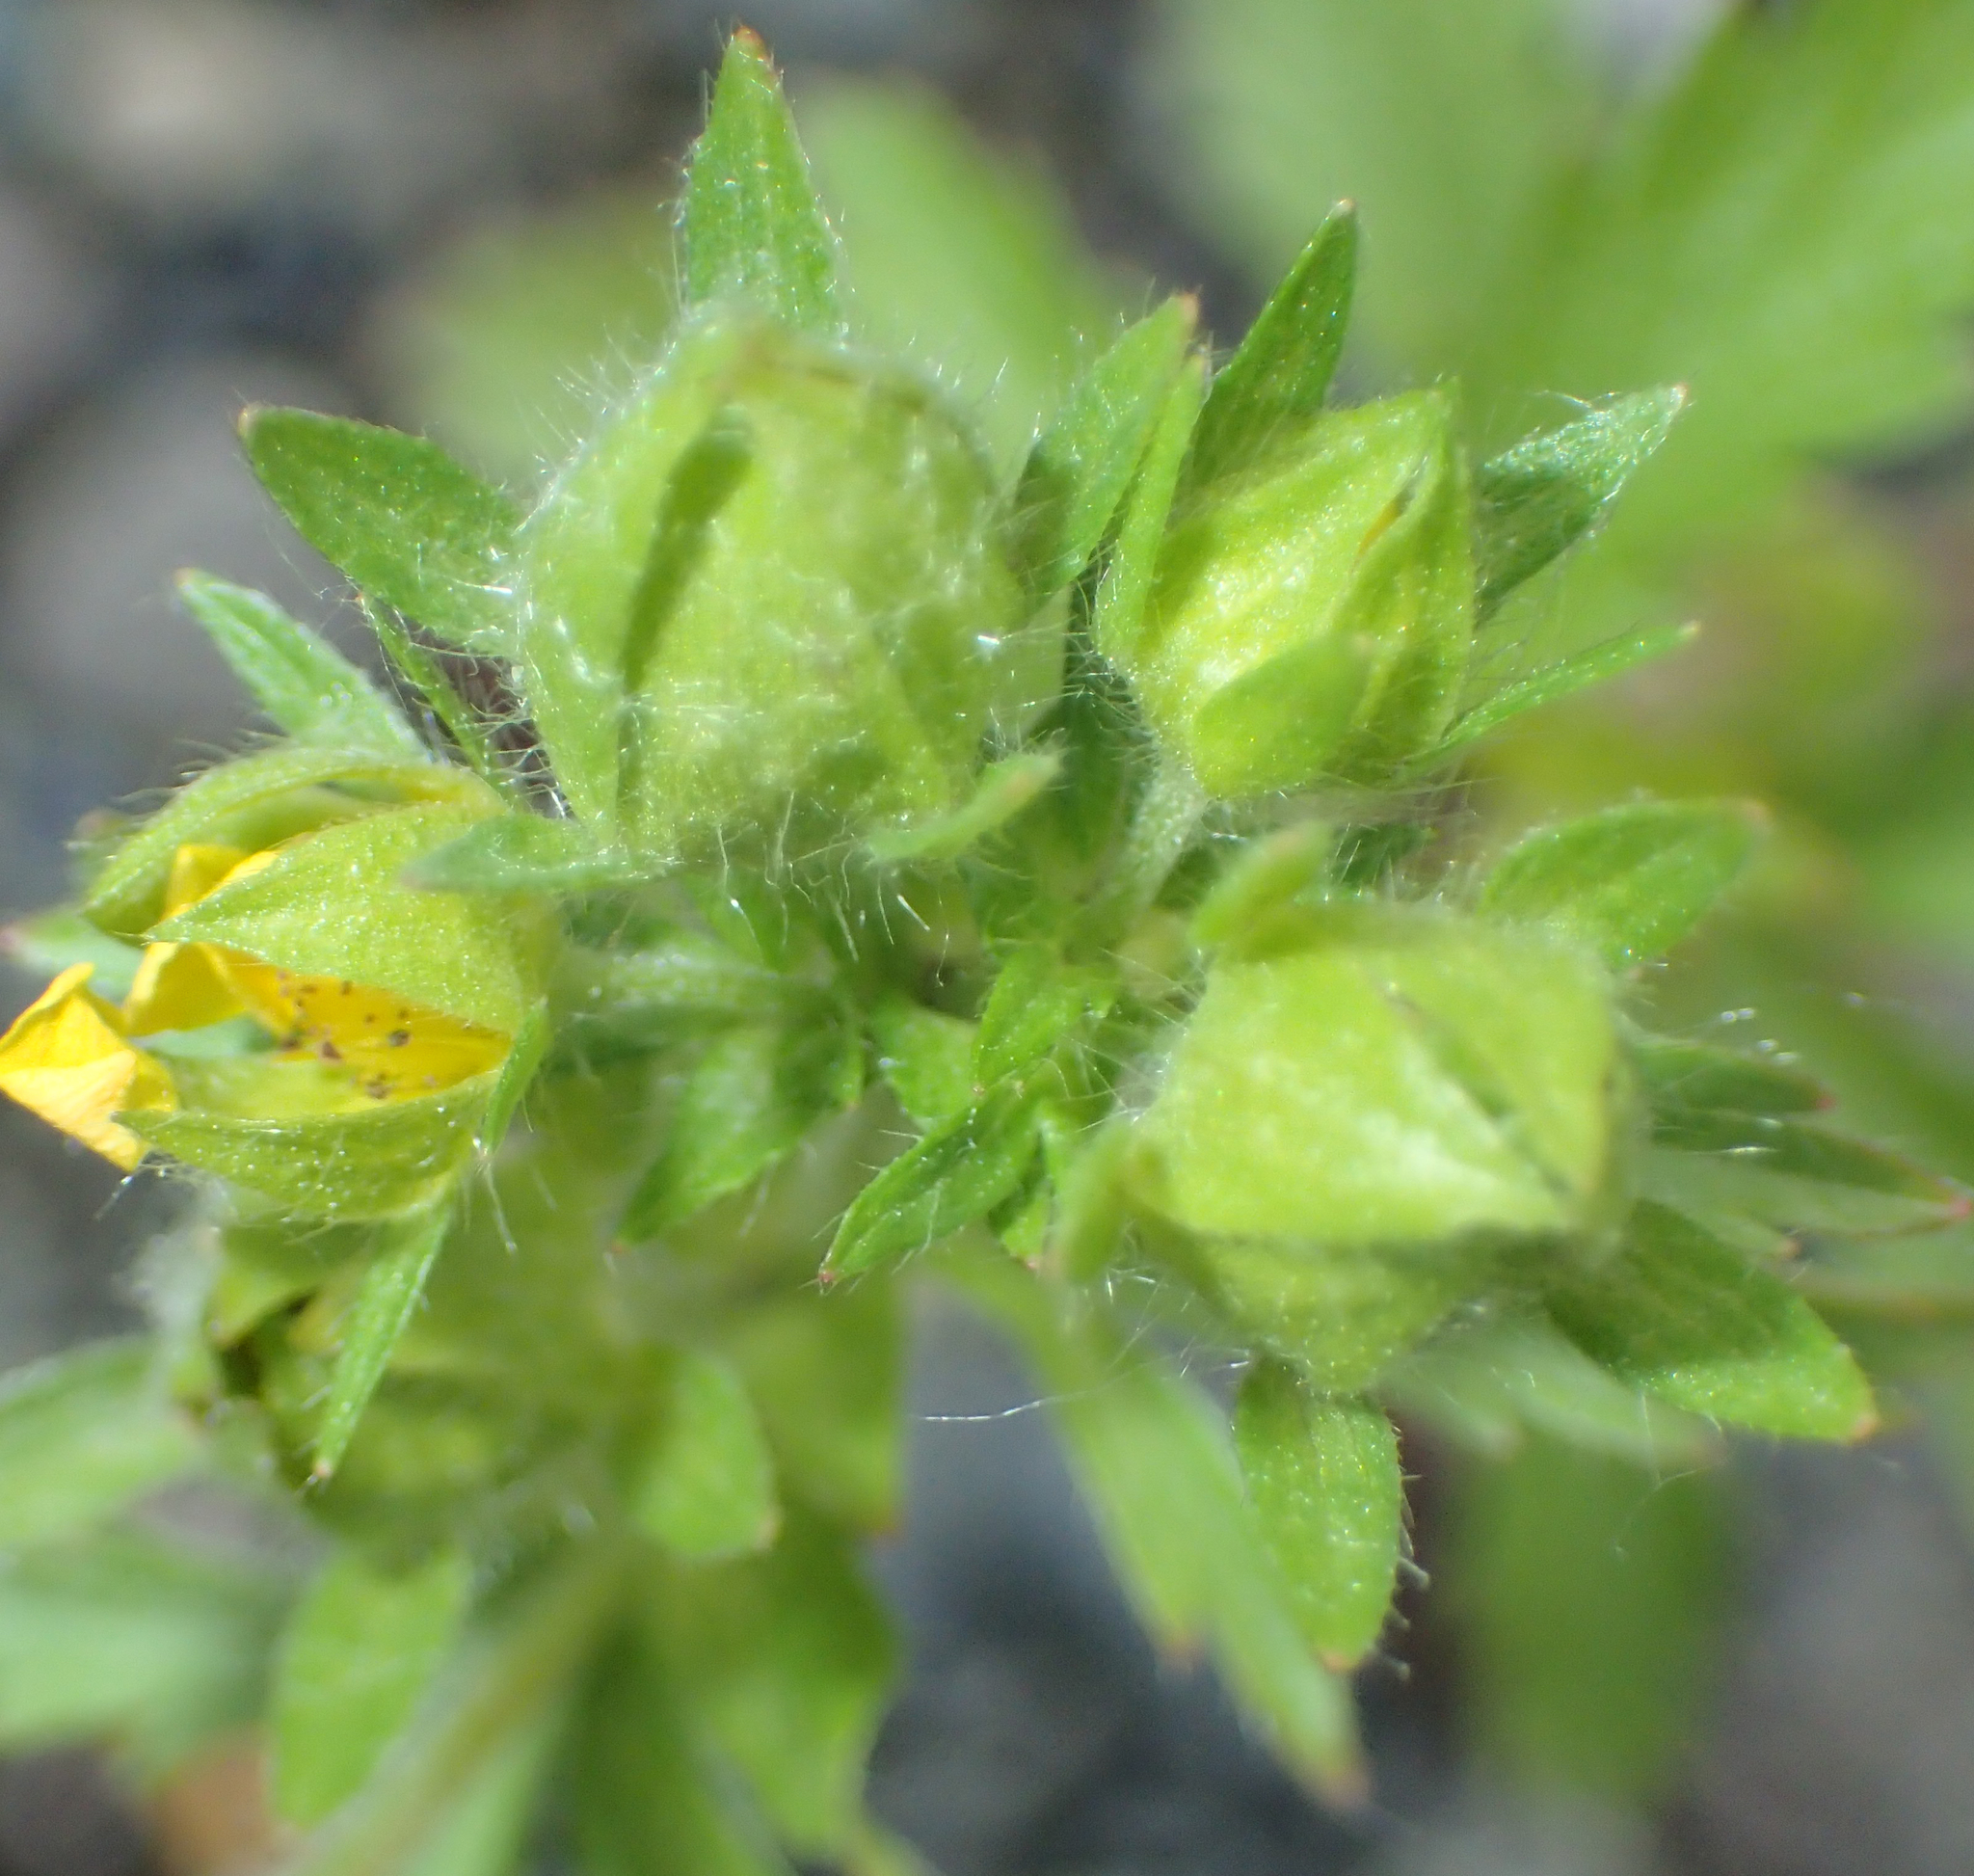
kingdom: Plantae
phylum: Tracheophyta
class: Magnoliopsida
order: Rosales
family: Rosaceae
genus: Potentilla
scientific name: Potentilla norvegica
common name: Ternate-leaved cinquefoil
